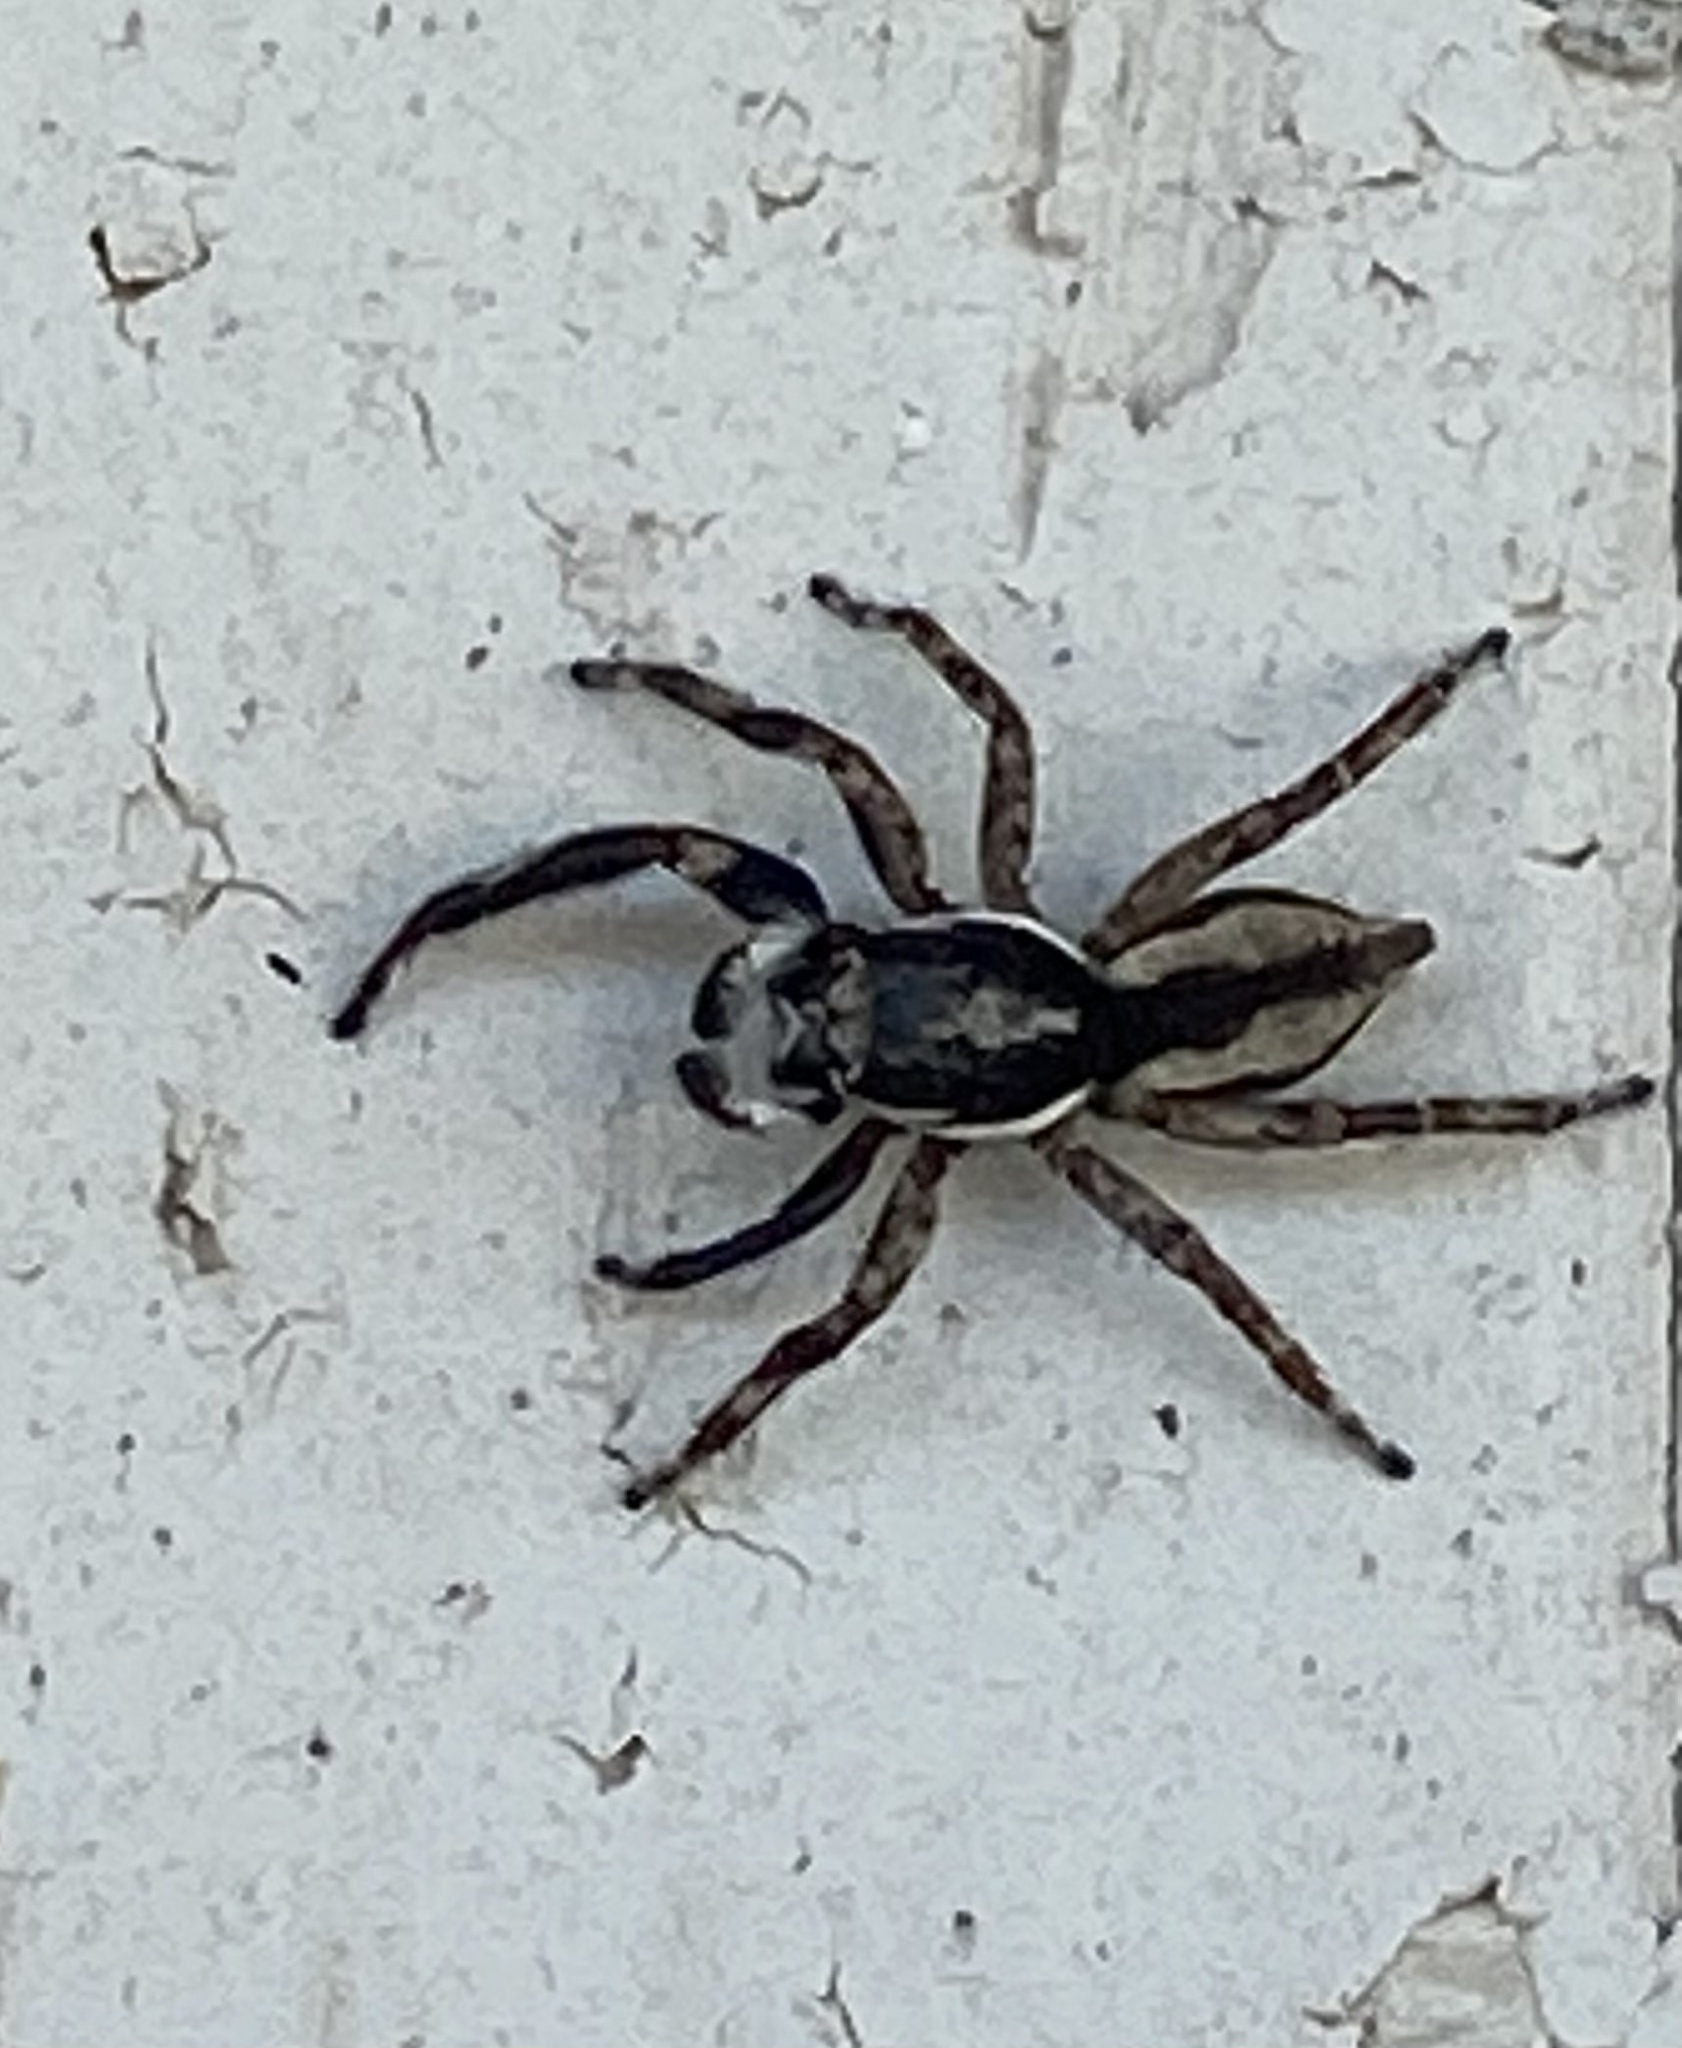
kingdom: Animalia
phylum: Arthropoda
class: Arachnida
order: Araneae
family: Salticidae
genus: Menemerus
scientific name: Menemerus bivittatus
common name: Gray wall jumper
